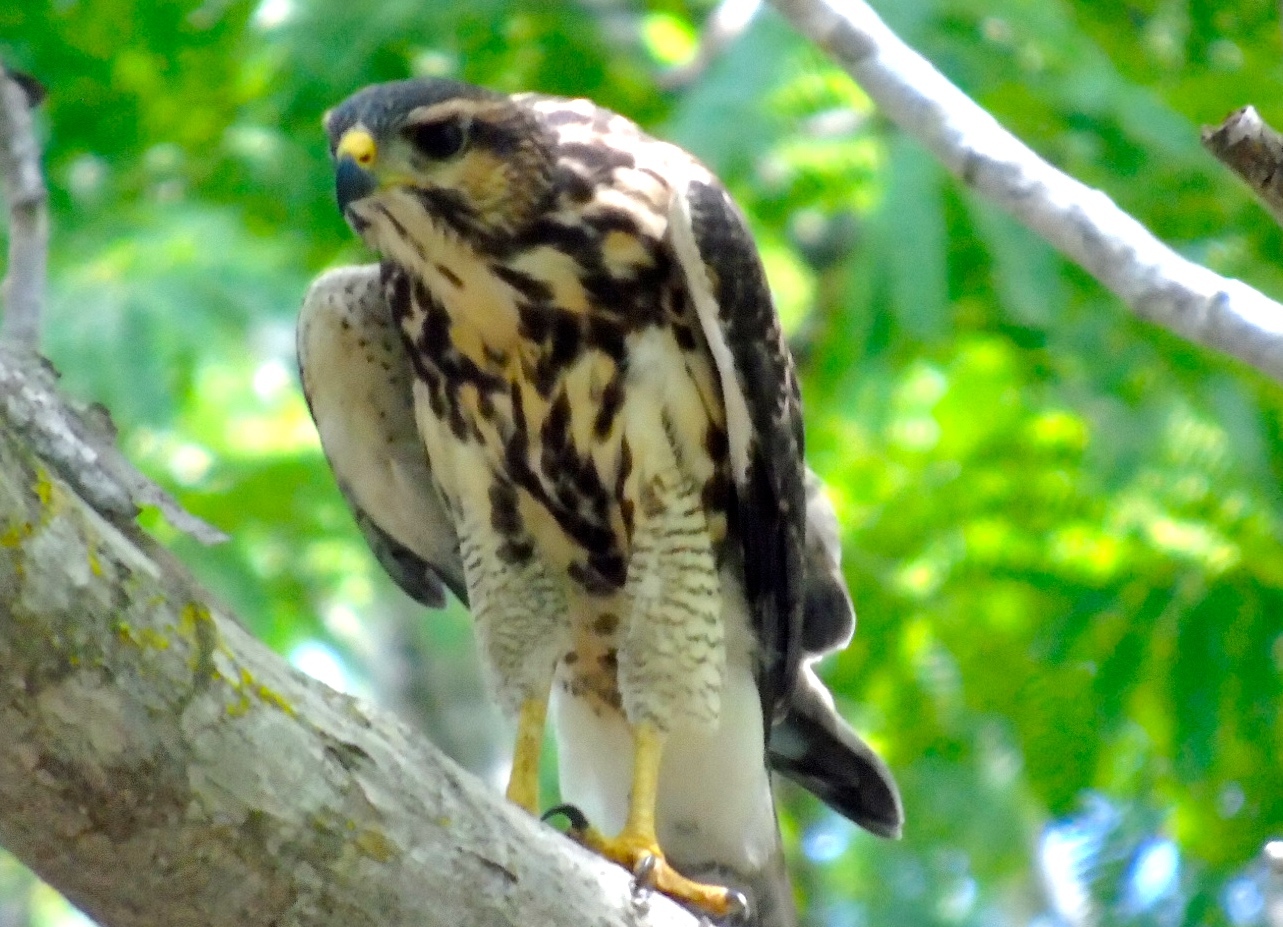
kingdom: Animalia
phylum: Chordata
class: Aves
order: Accipitriformes
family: Accipitridae
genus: Buteo
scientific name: Buteo nitidus
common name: Grey-lined hawk
